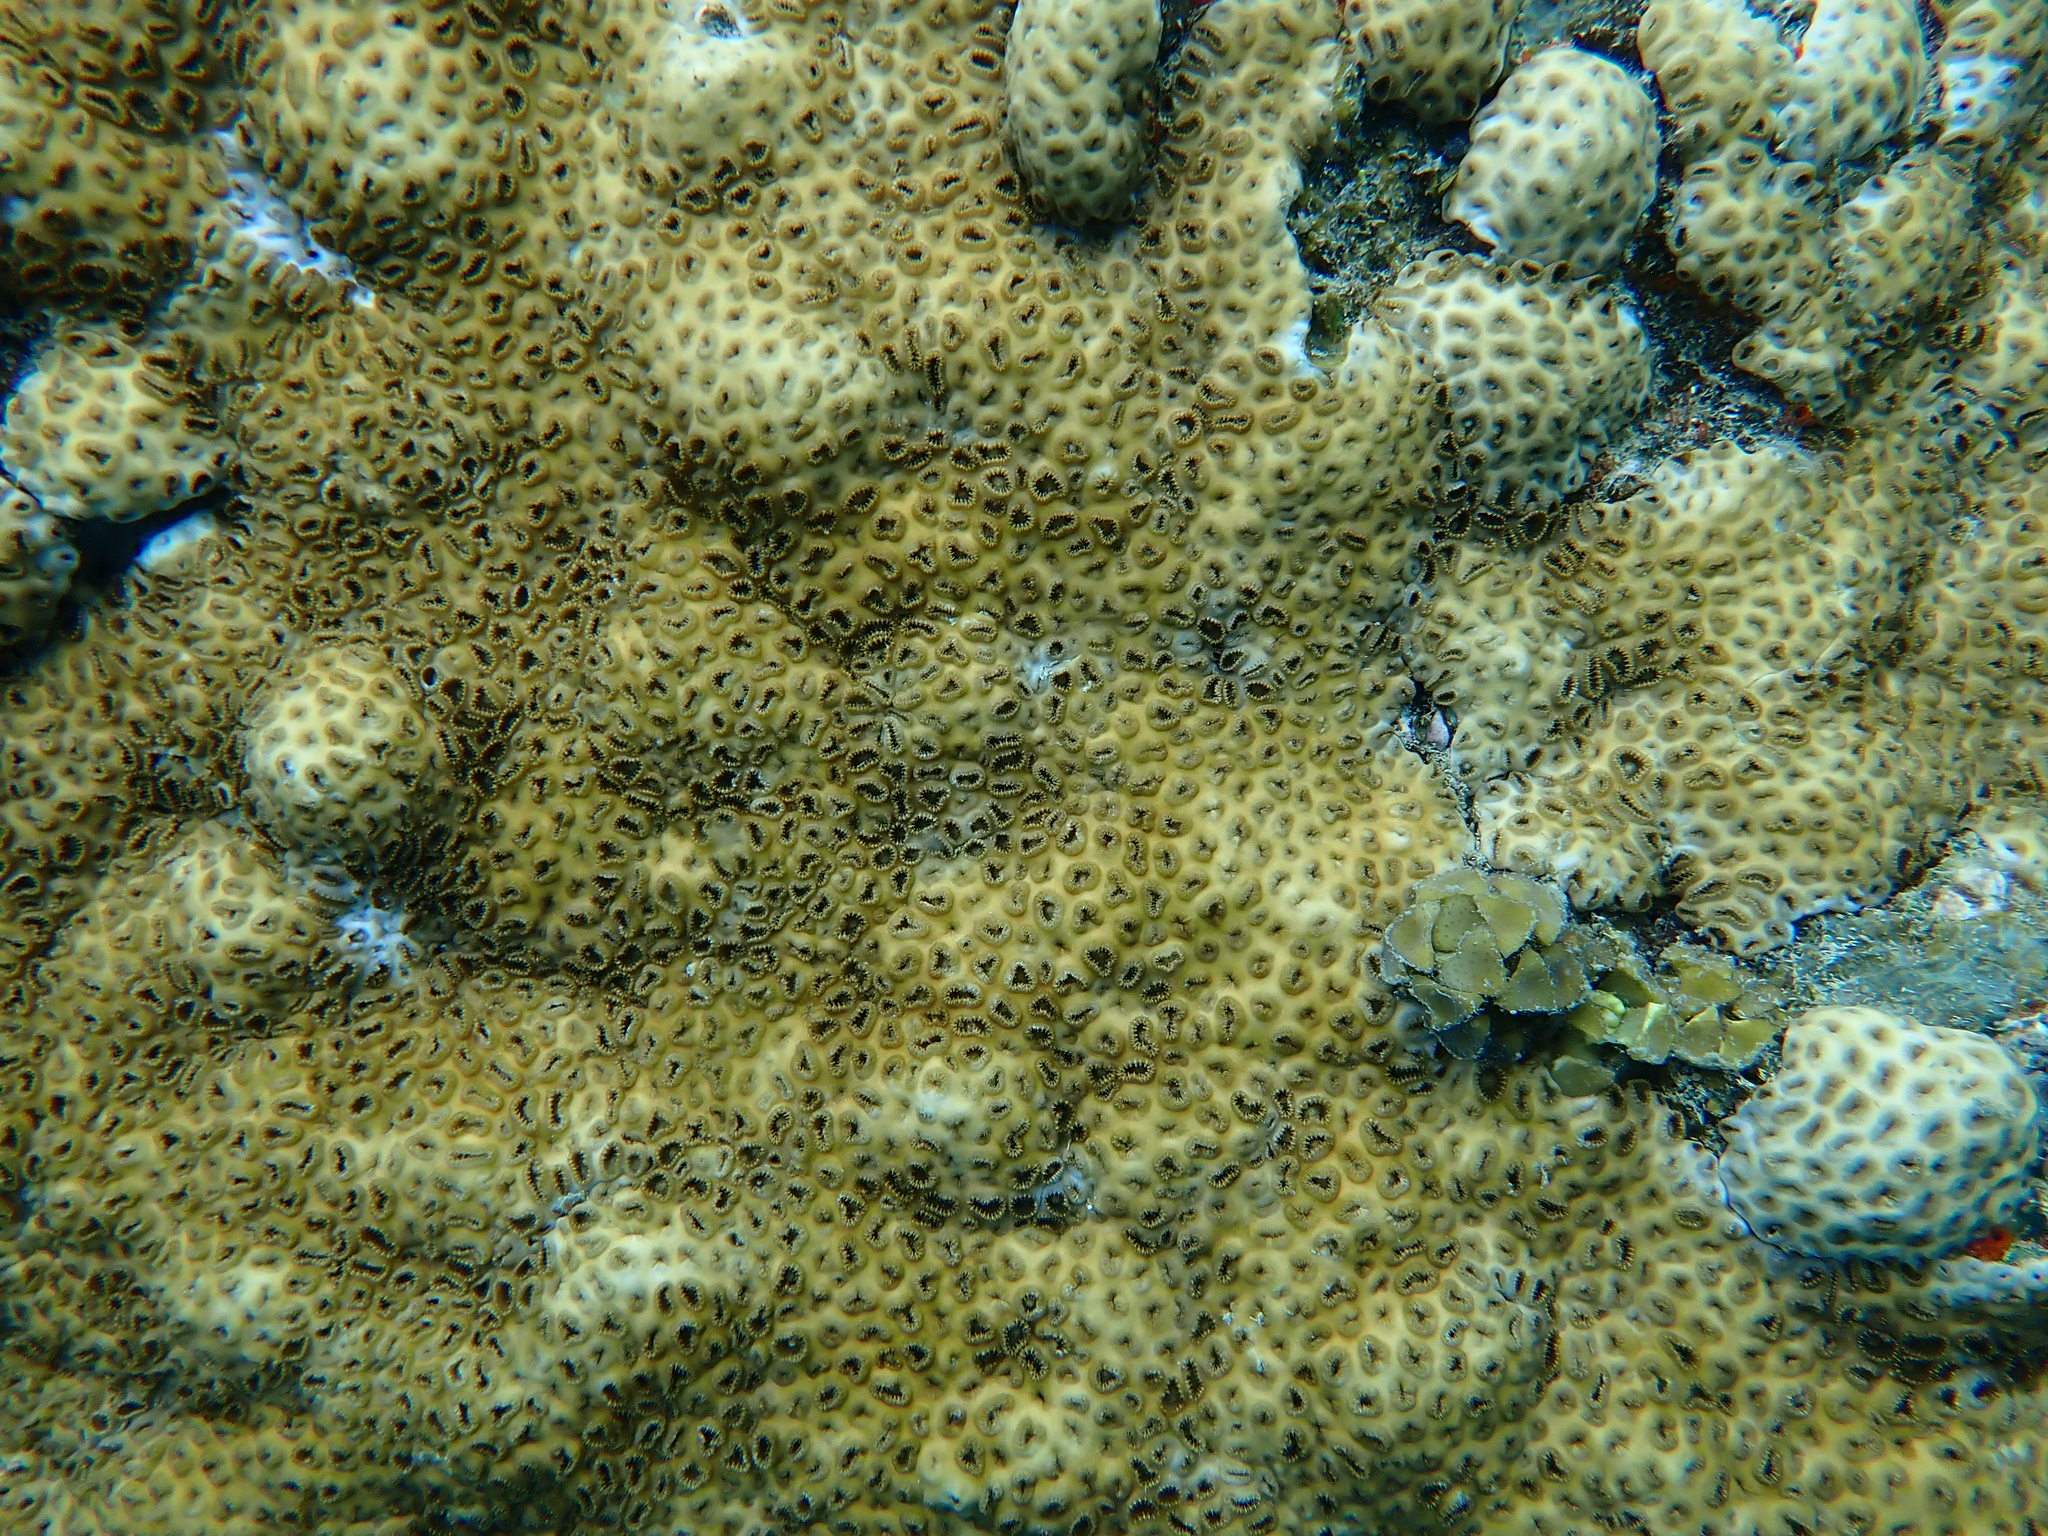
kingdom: Animalia
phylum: Cnidaria
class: Anthozoa
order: Zoantharia
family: Sphenopidae
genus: Palythoa
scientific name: Palythoa tuberculosa
